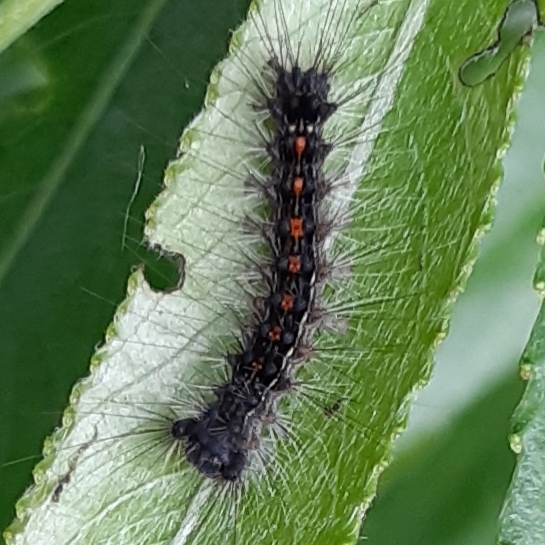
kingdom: Animalia
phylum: Arthropoda
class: Insecta
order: Lepidoptera
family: Erebidae
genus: Lymantria
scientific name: Lymantria dispar
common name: Gypsy moth
